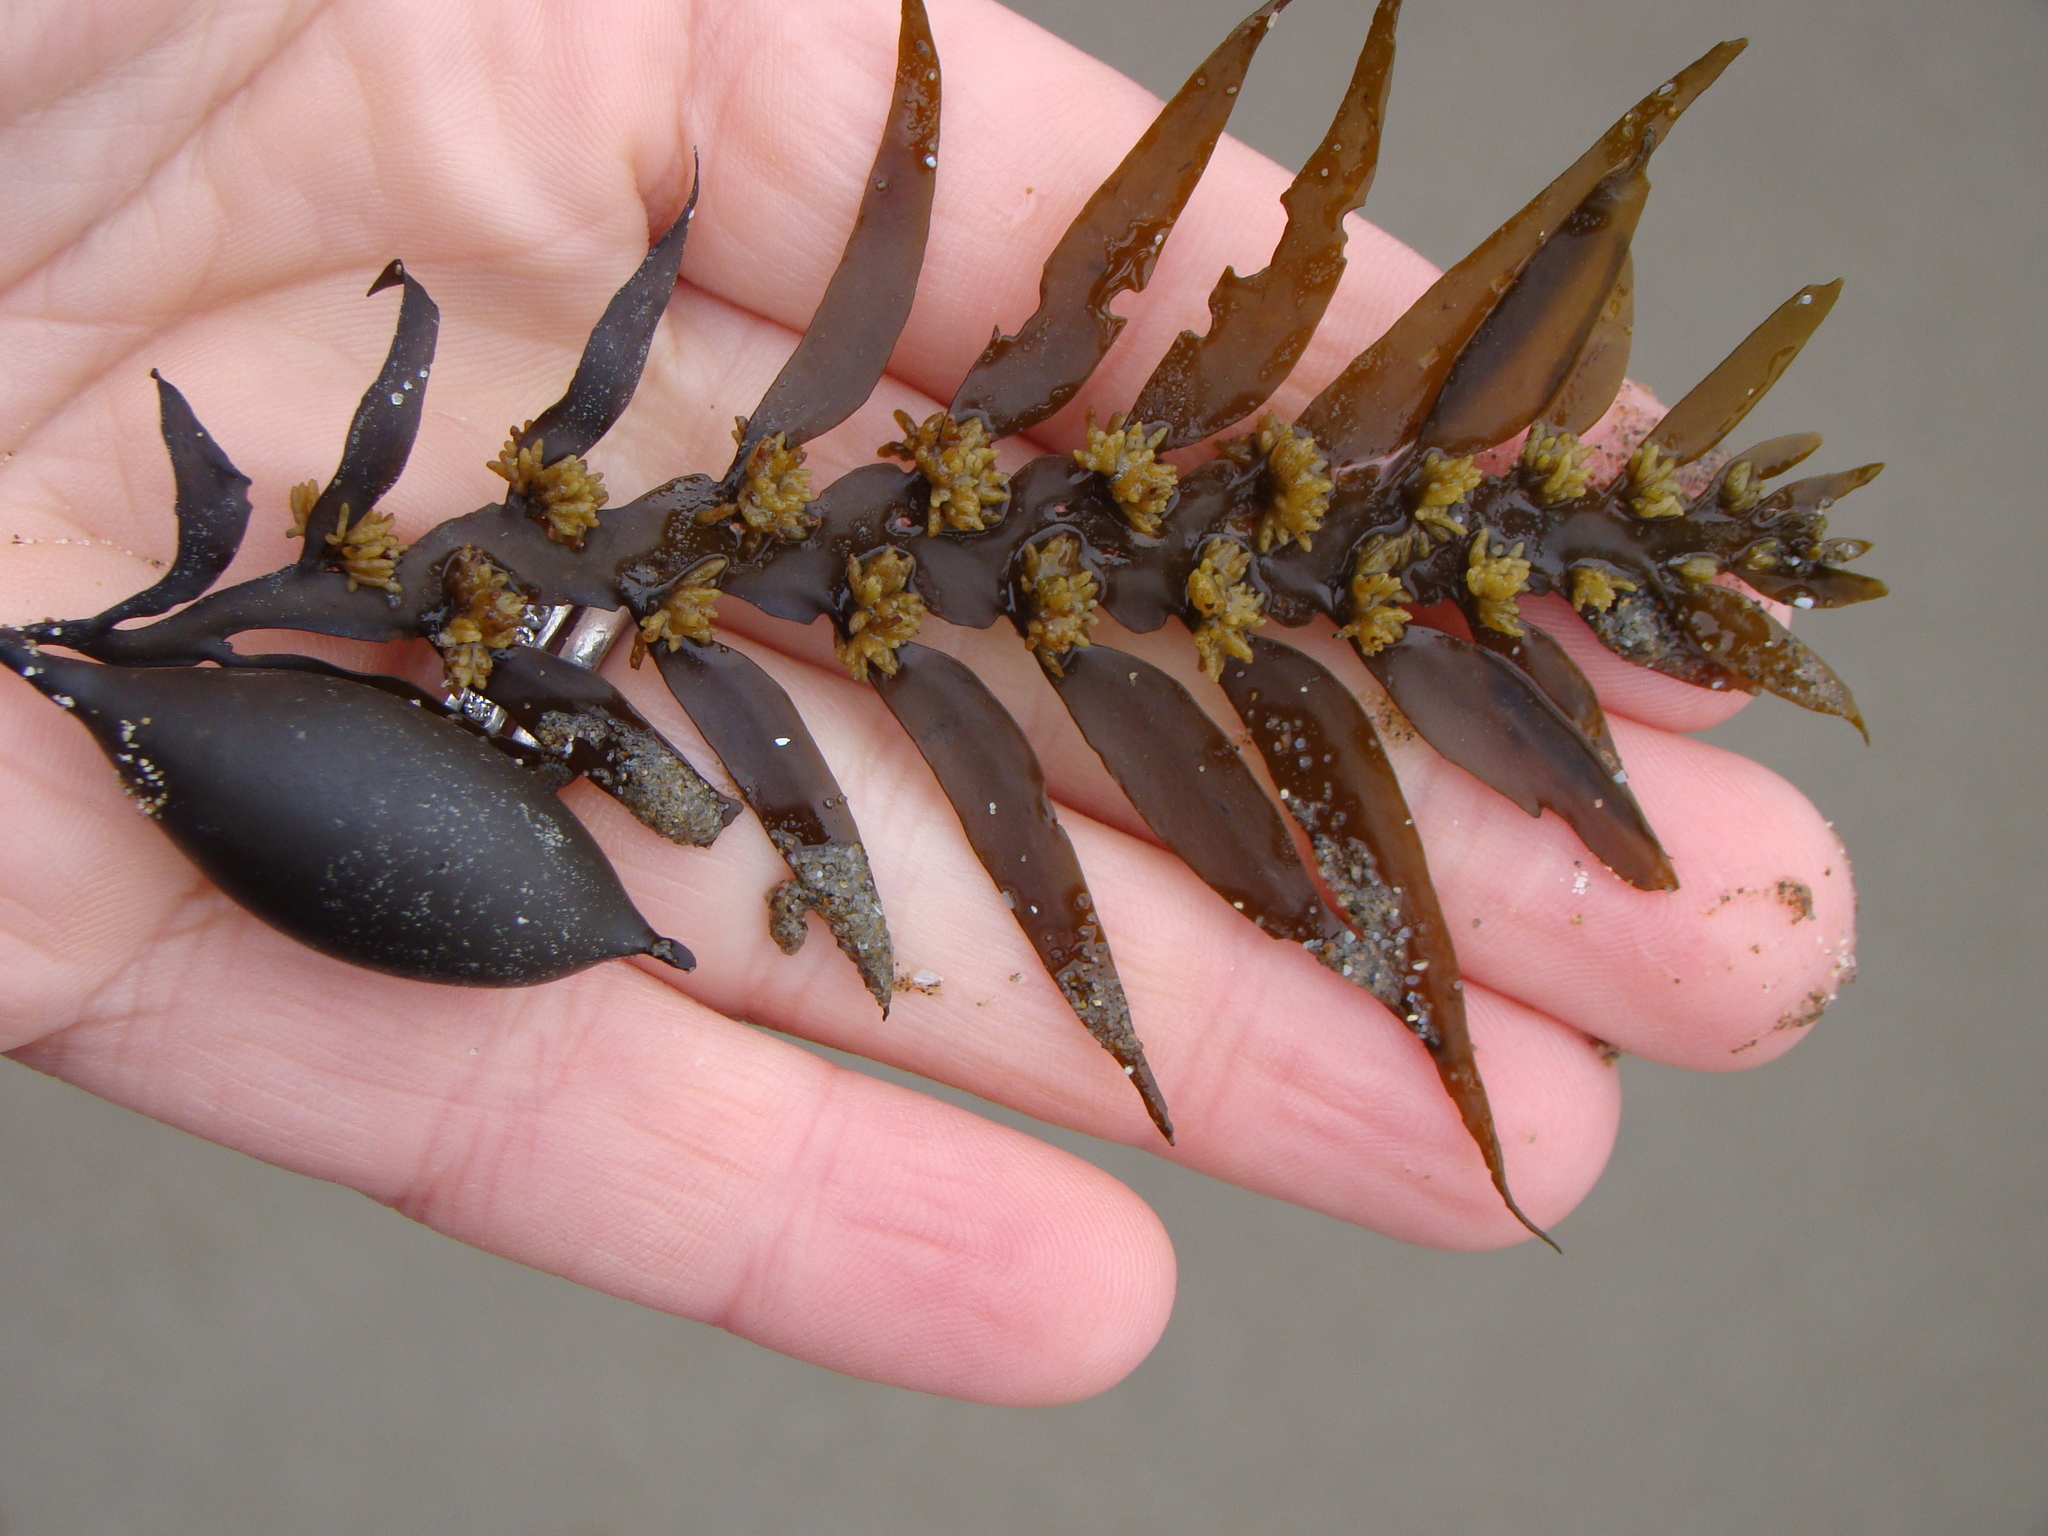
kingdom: Chromista
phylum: Ochrophyta
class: Phaeophyceae
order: Fucales
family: Sargassaceae
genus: Carpophyllum
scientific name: Carpophyllum maschalocarpum
